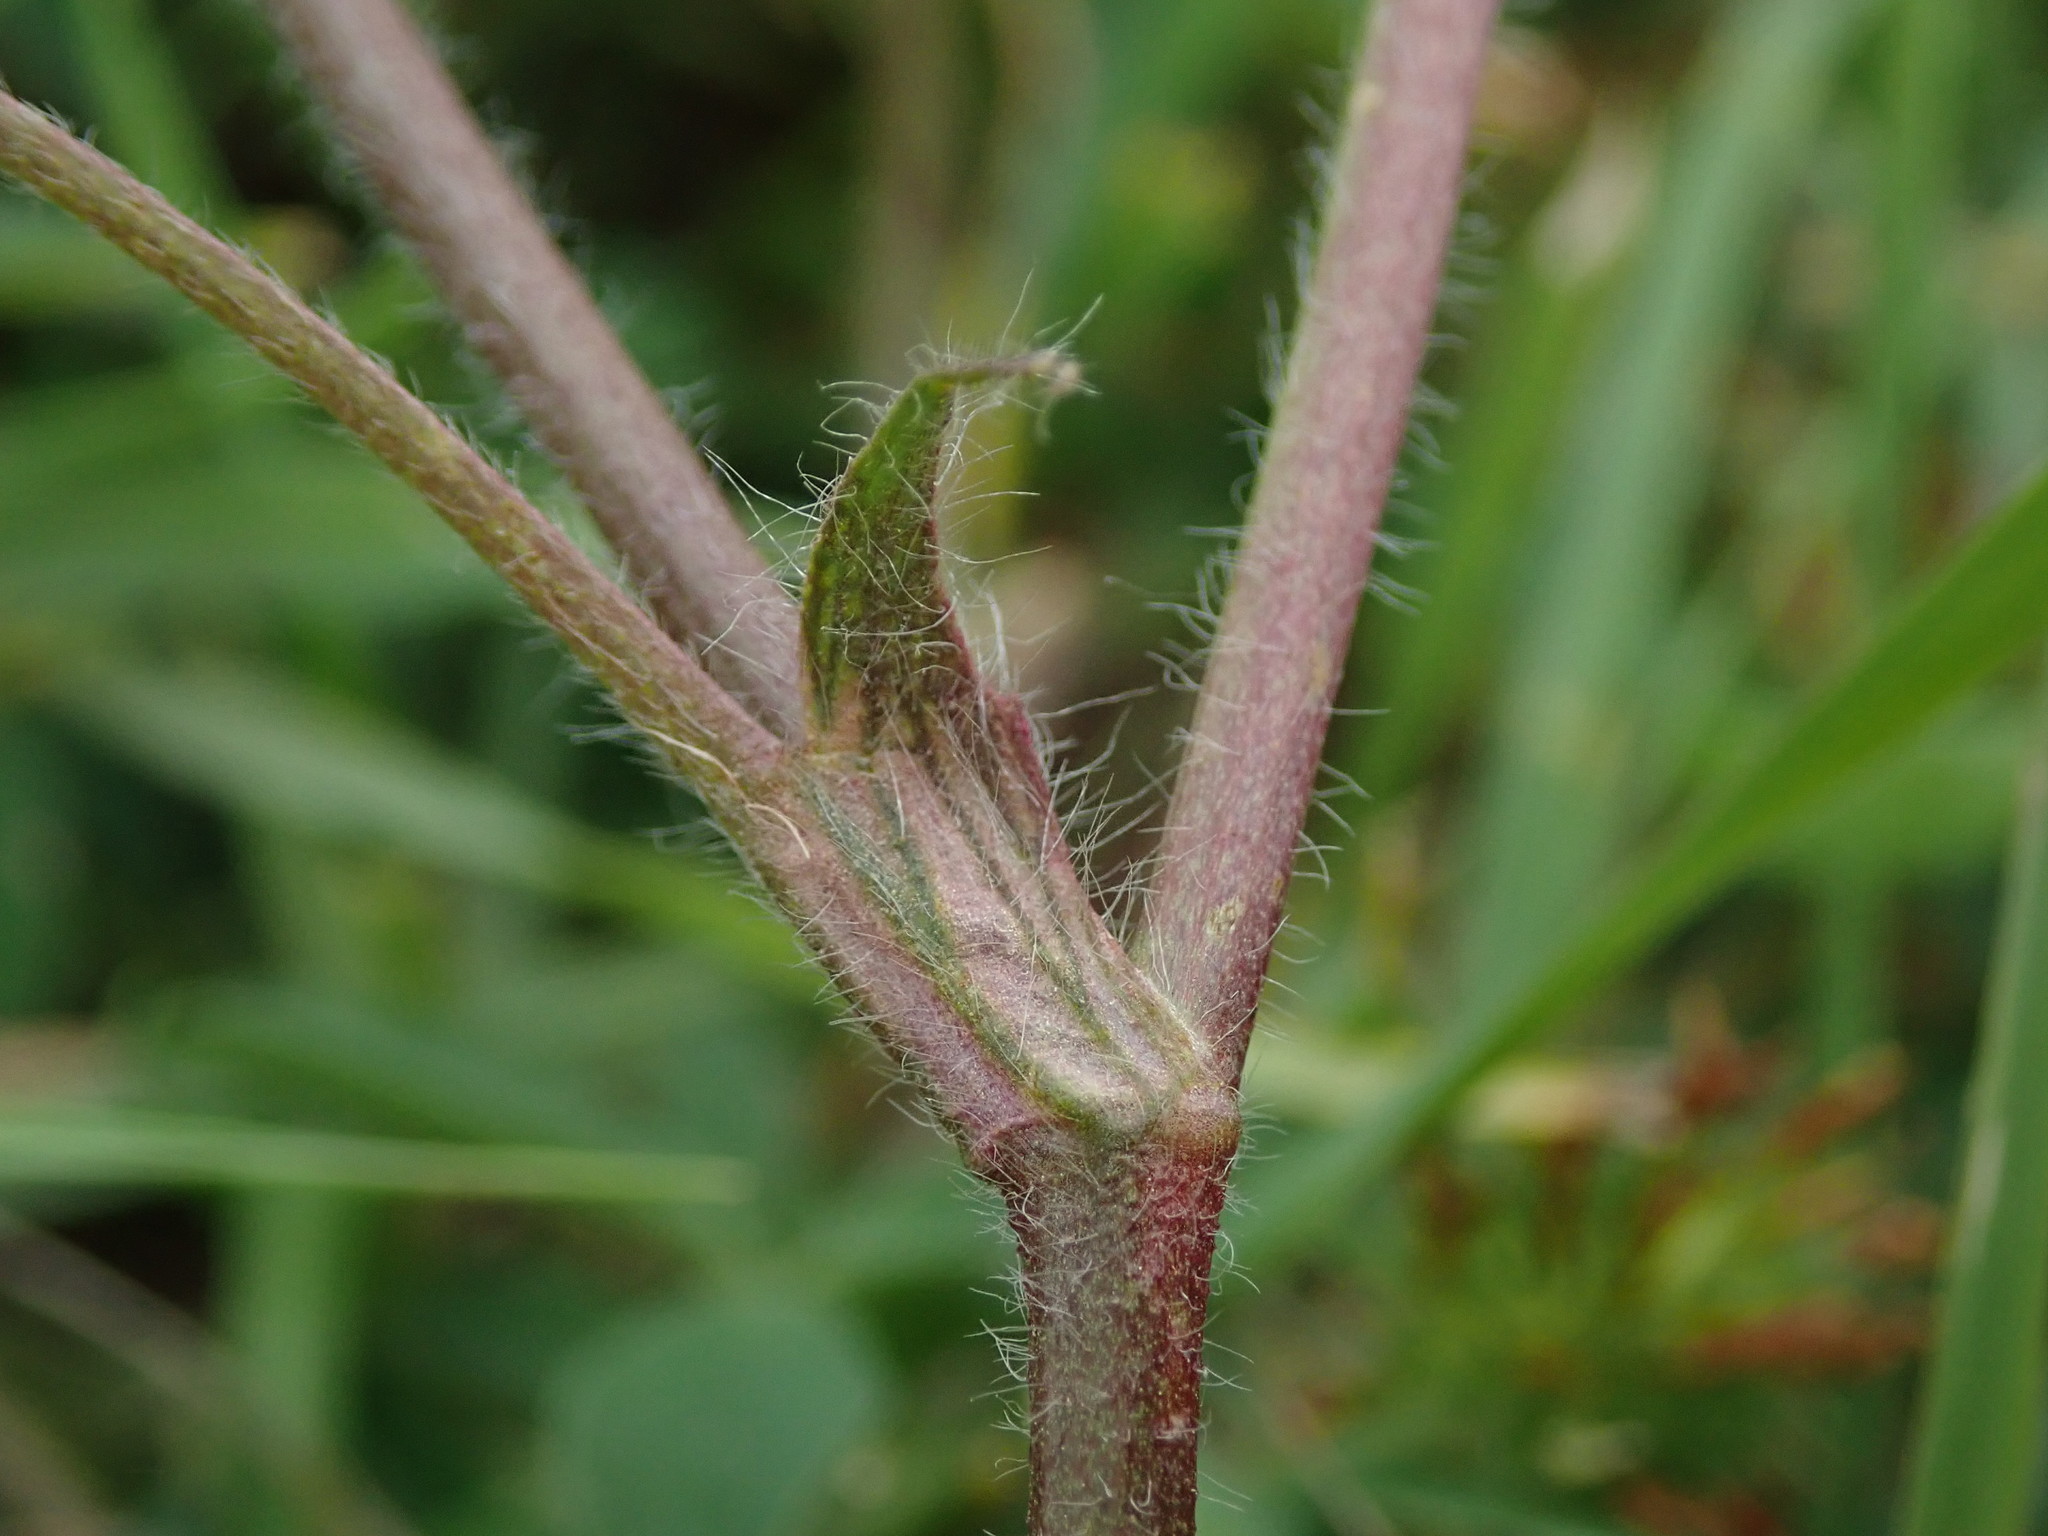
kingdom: Plantae
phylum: Tracheophyta
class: Magnoliopsida
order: Fabales
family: Fabaceae
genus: Trifolium
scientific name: Trifolium squamosum
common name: Sea clover
